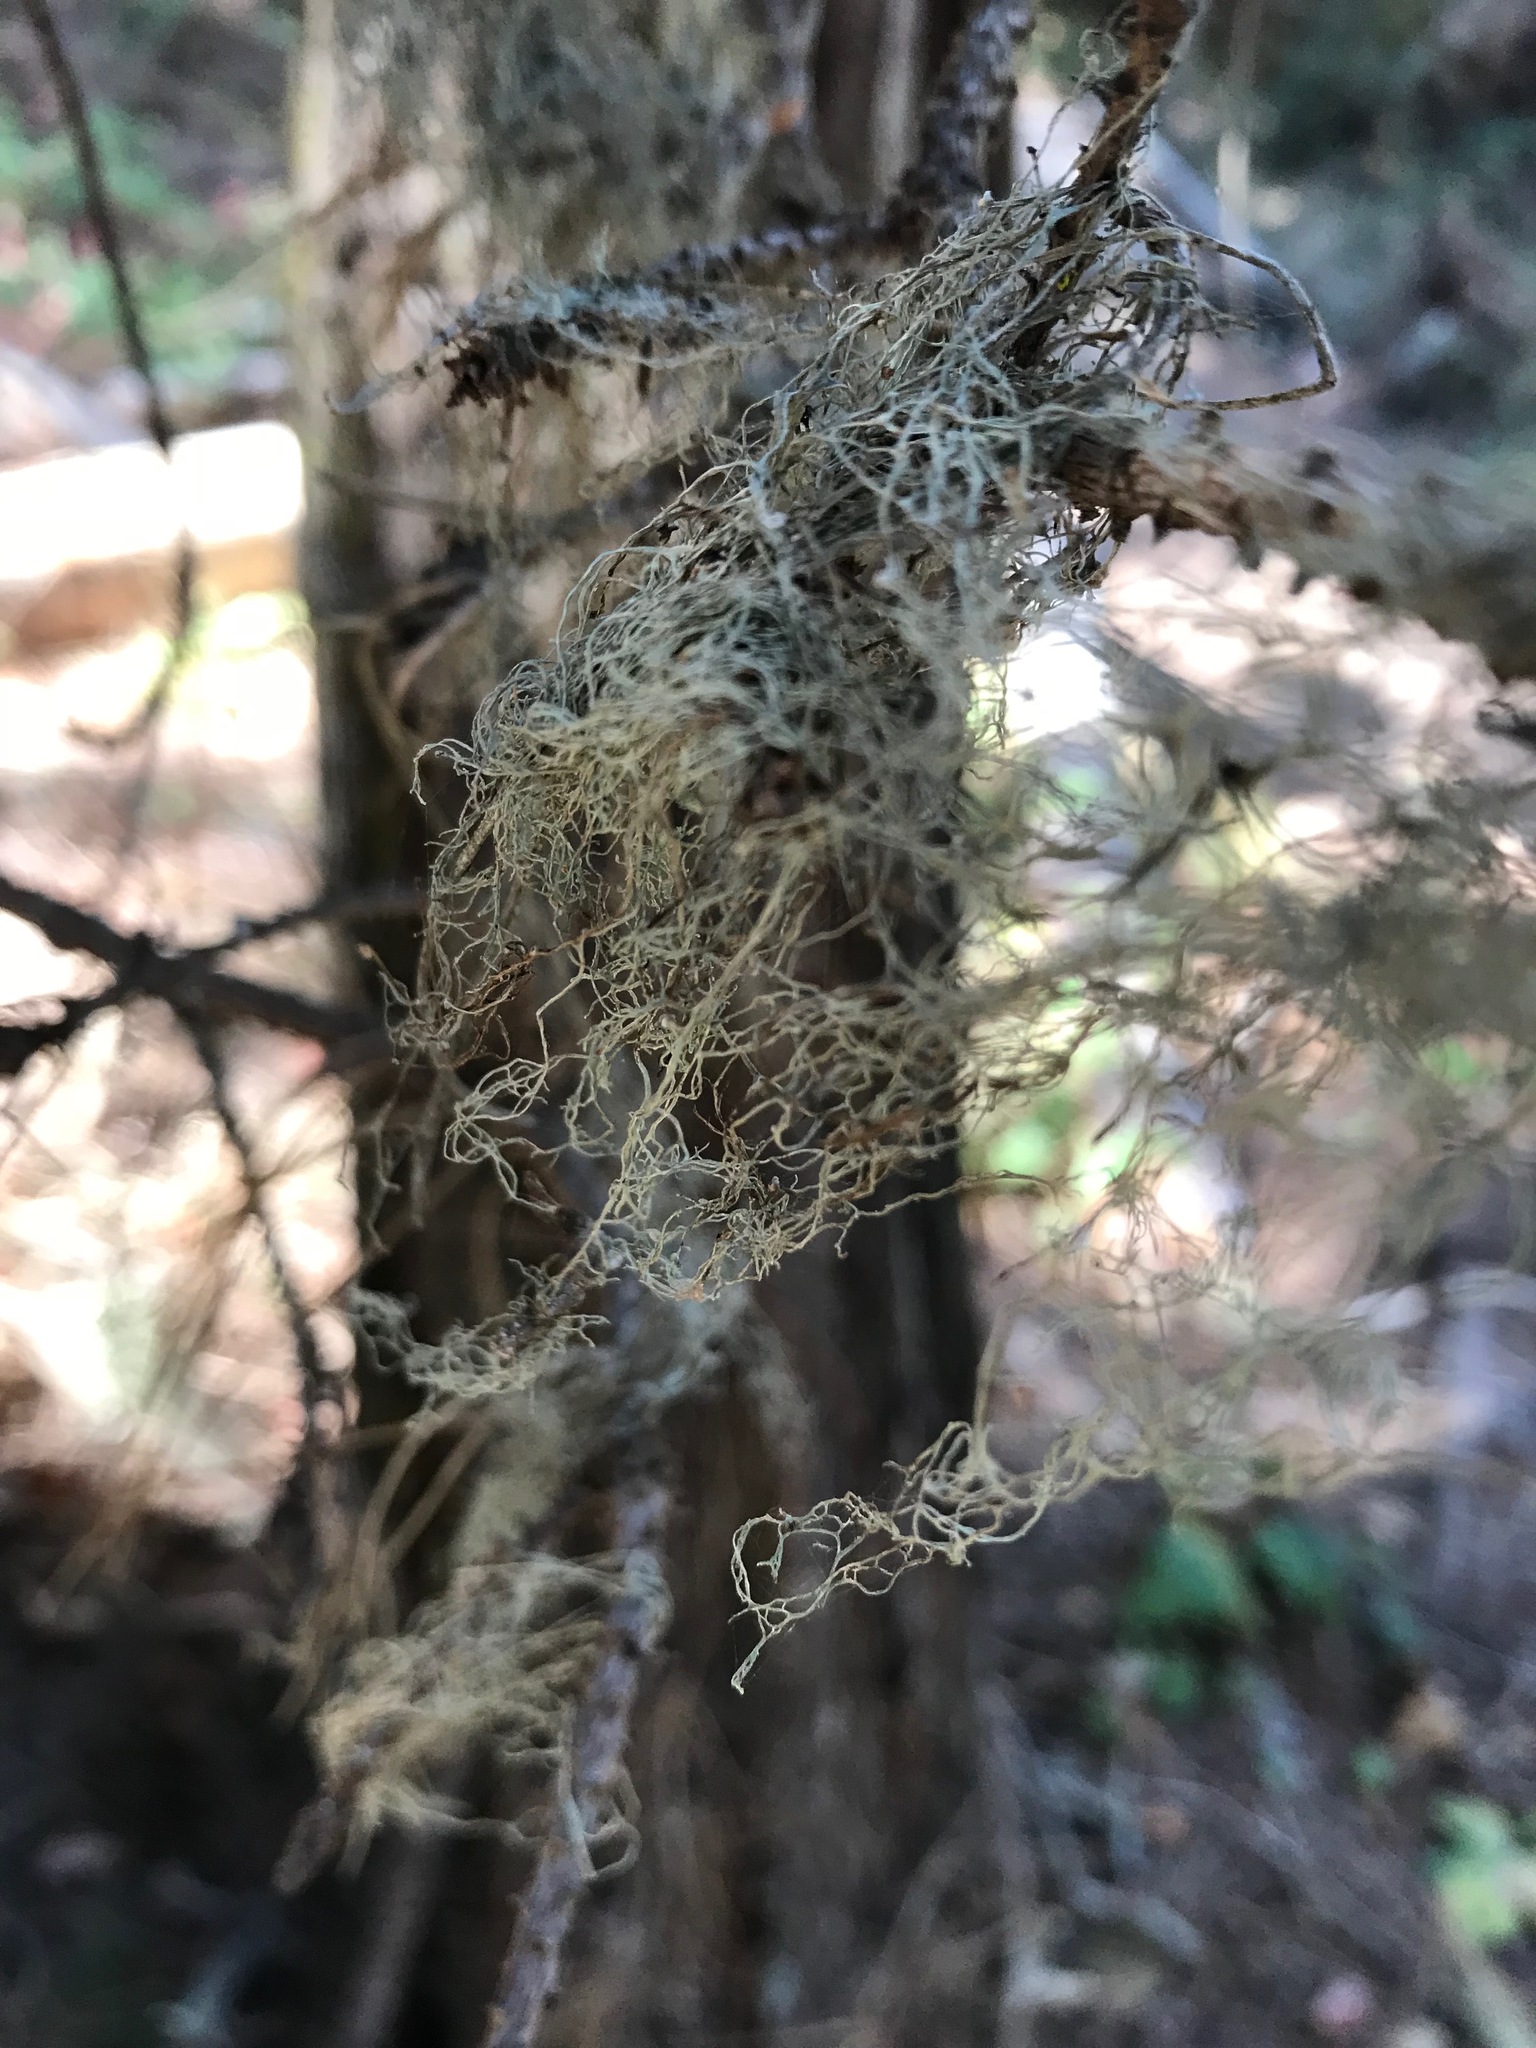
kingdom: Fungi
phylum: Ascomycota
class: Lecanoromycetes
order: Lecanorales
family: Ramalinaceae
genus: Ramalina
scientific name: Ramalina menziesii
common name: Lace lichen
